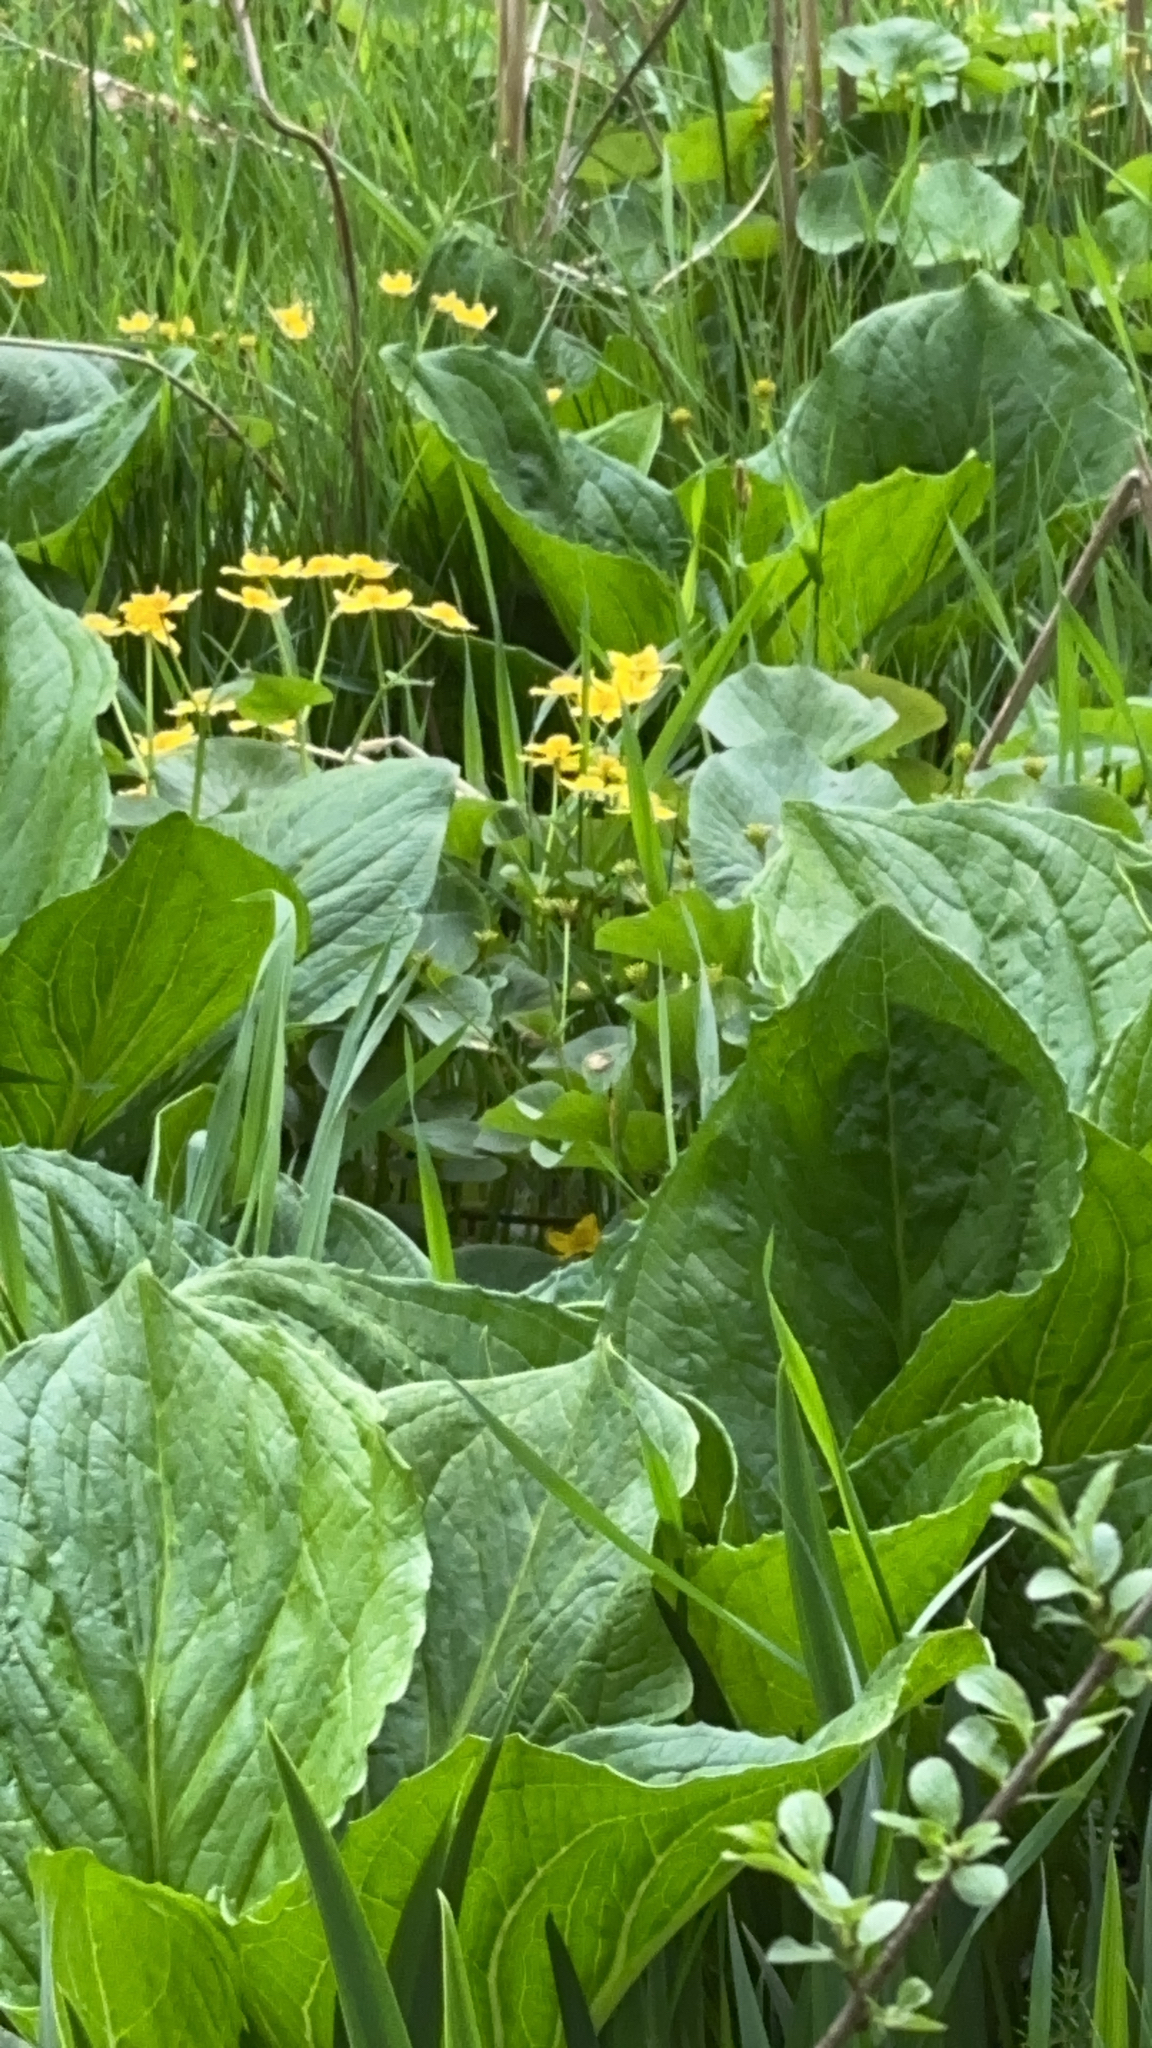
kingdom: Plantae
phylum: Tracheophyta
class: Magnoliopsida
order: Ranunculales
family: Ranunculaceae
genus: Caltha
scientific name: Caltha palustris
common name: Marsh marigold
